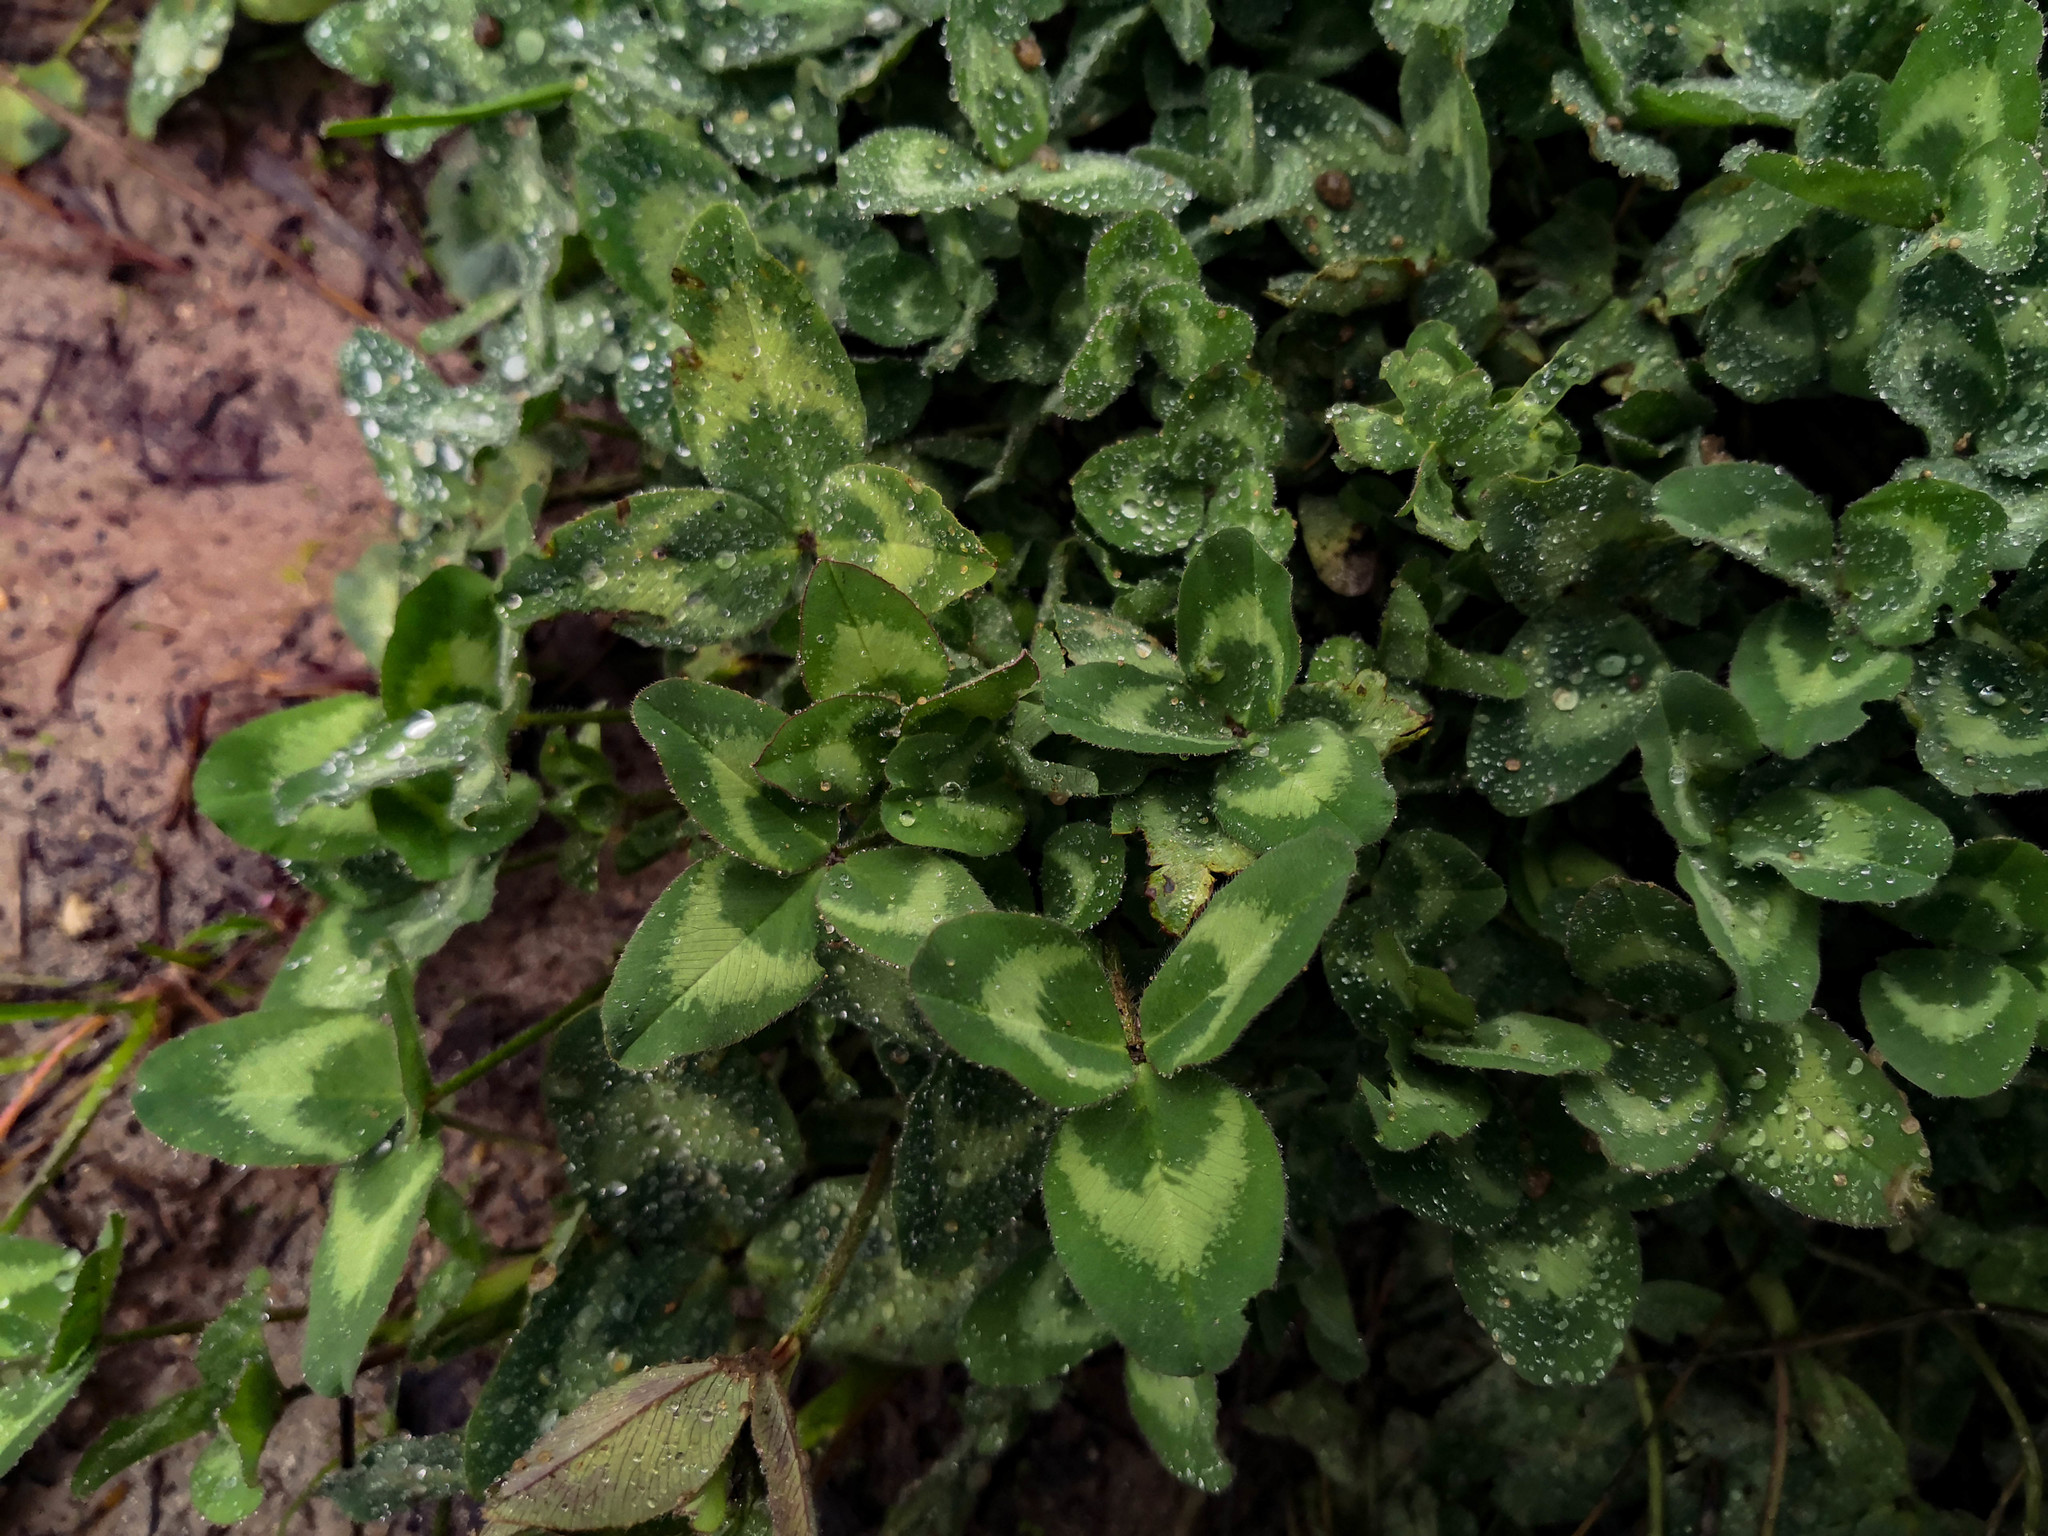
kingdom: Plantae
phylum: Tracheophyta
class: Magnoliopsida
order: Fabales
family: Fabaceae
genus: Trifolium
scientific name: Trifolium pratense
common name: Red clover
